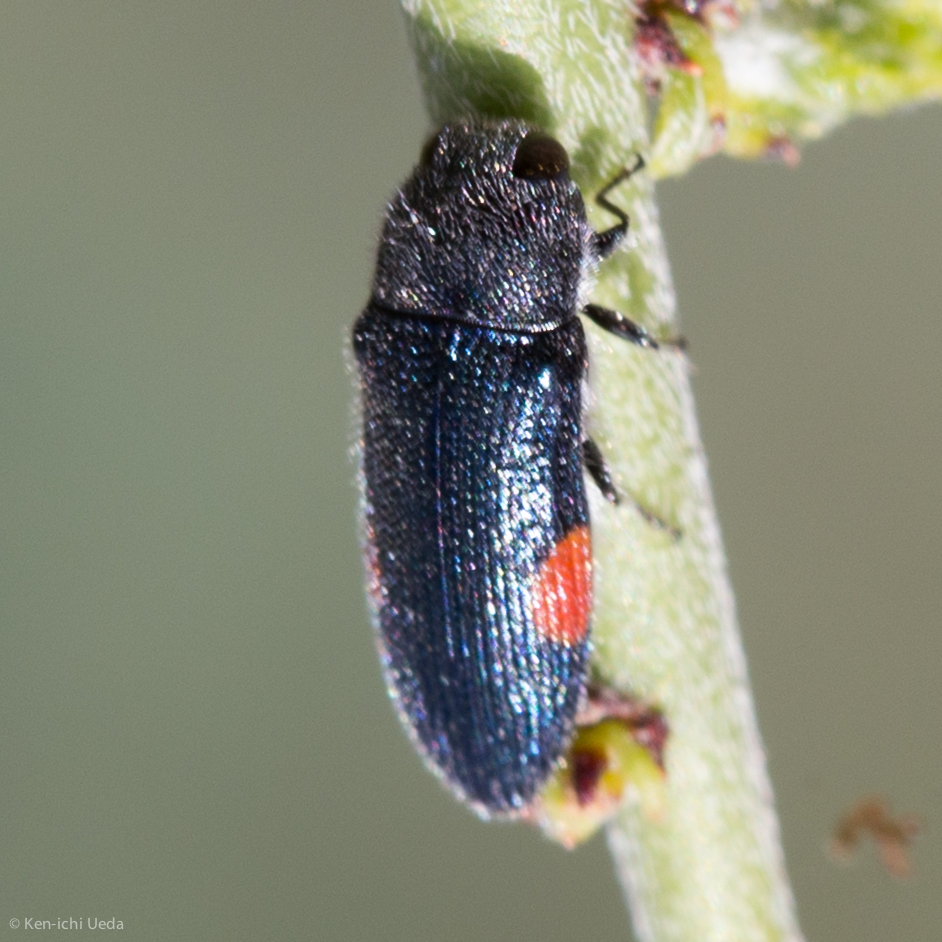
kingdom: Animalia
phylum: Arthropoda
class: Insecta
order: Coleoptera
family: Buprestidae
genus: Acmaeodera
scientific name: Acmaeodera acanthicola
